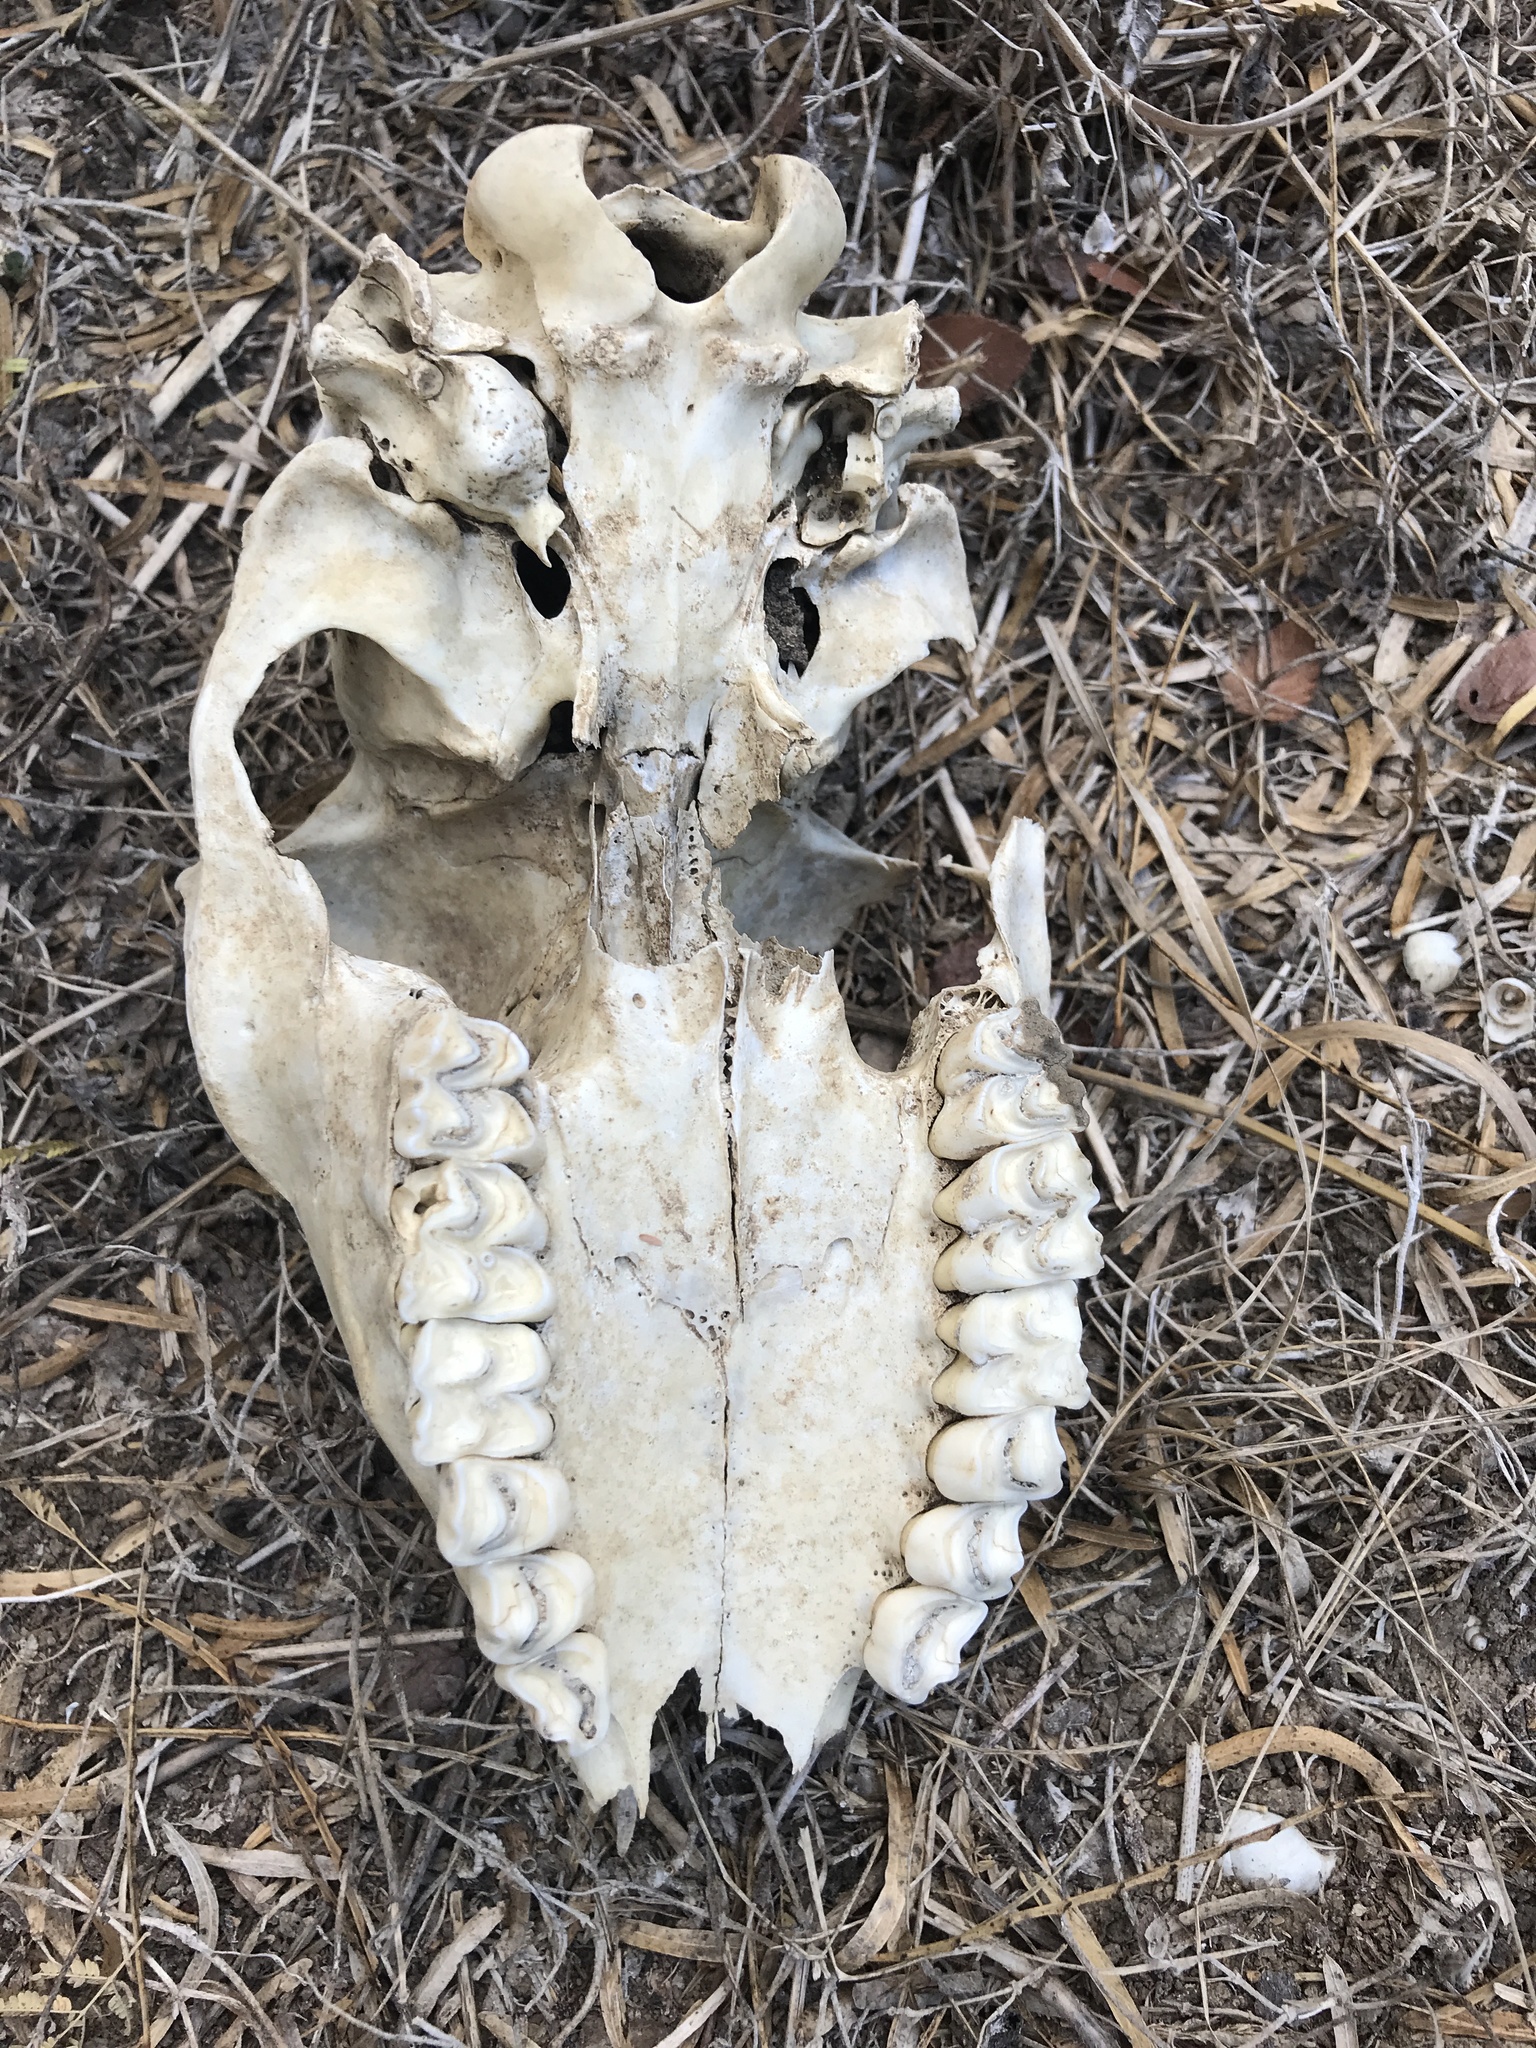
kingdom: Animalia
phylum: Chordata
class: Mammalia
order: Artiodactyla
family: Cervidae
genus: Odocoileus
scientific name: Odocoileus virginianus
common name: White-tailed deer
